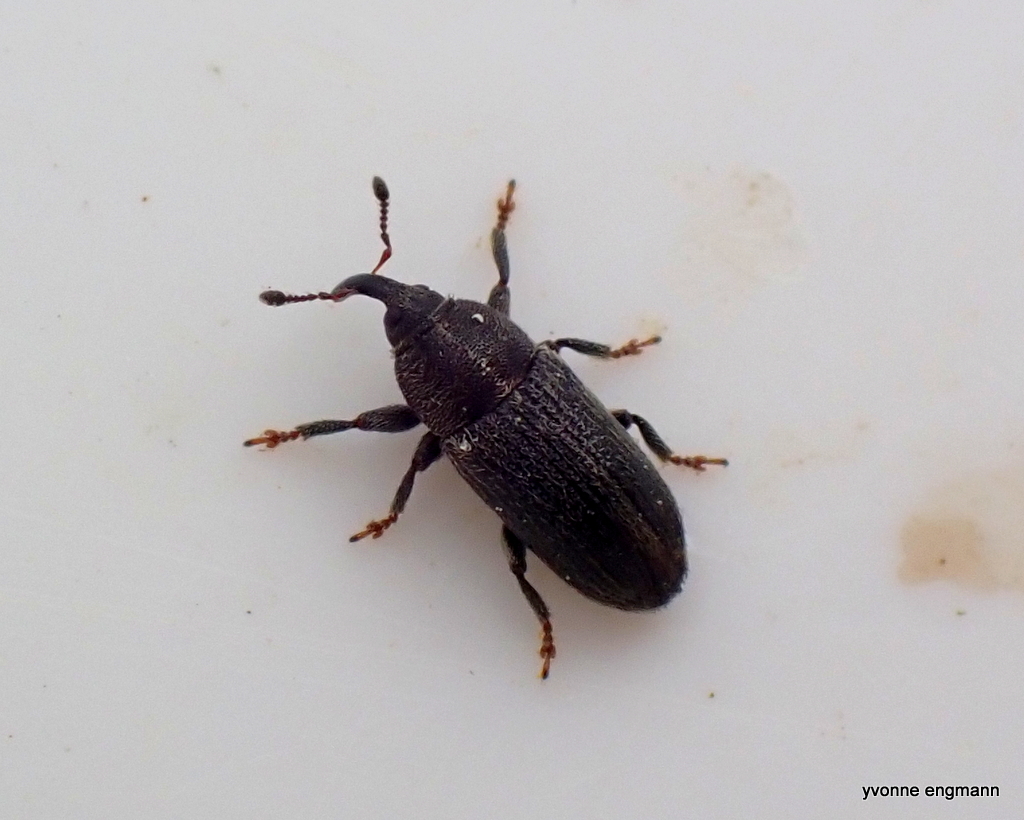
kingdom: Animalia
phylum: Arthropoda
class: Insecta
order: Coleoptera
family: Curculionidae
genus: Mecinus
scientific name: Mecinus pyraster
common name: Weevil
